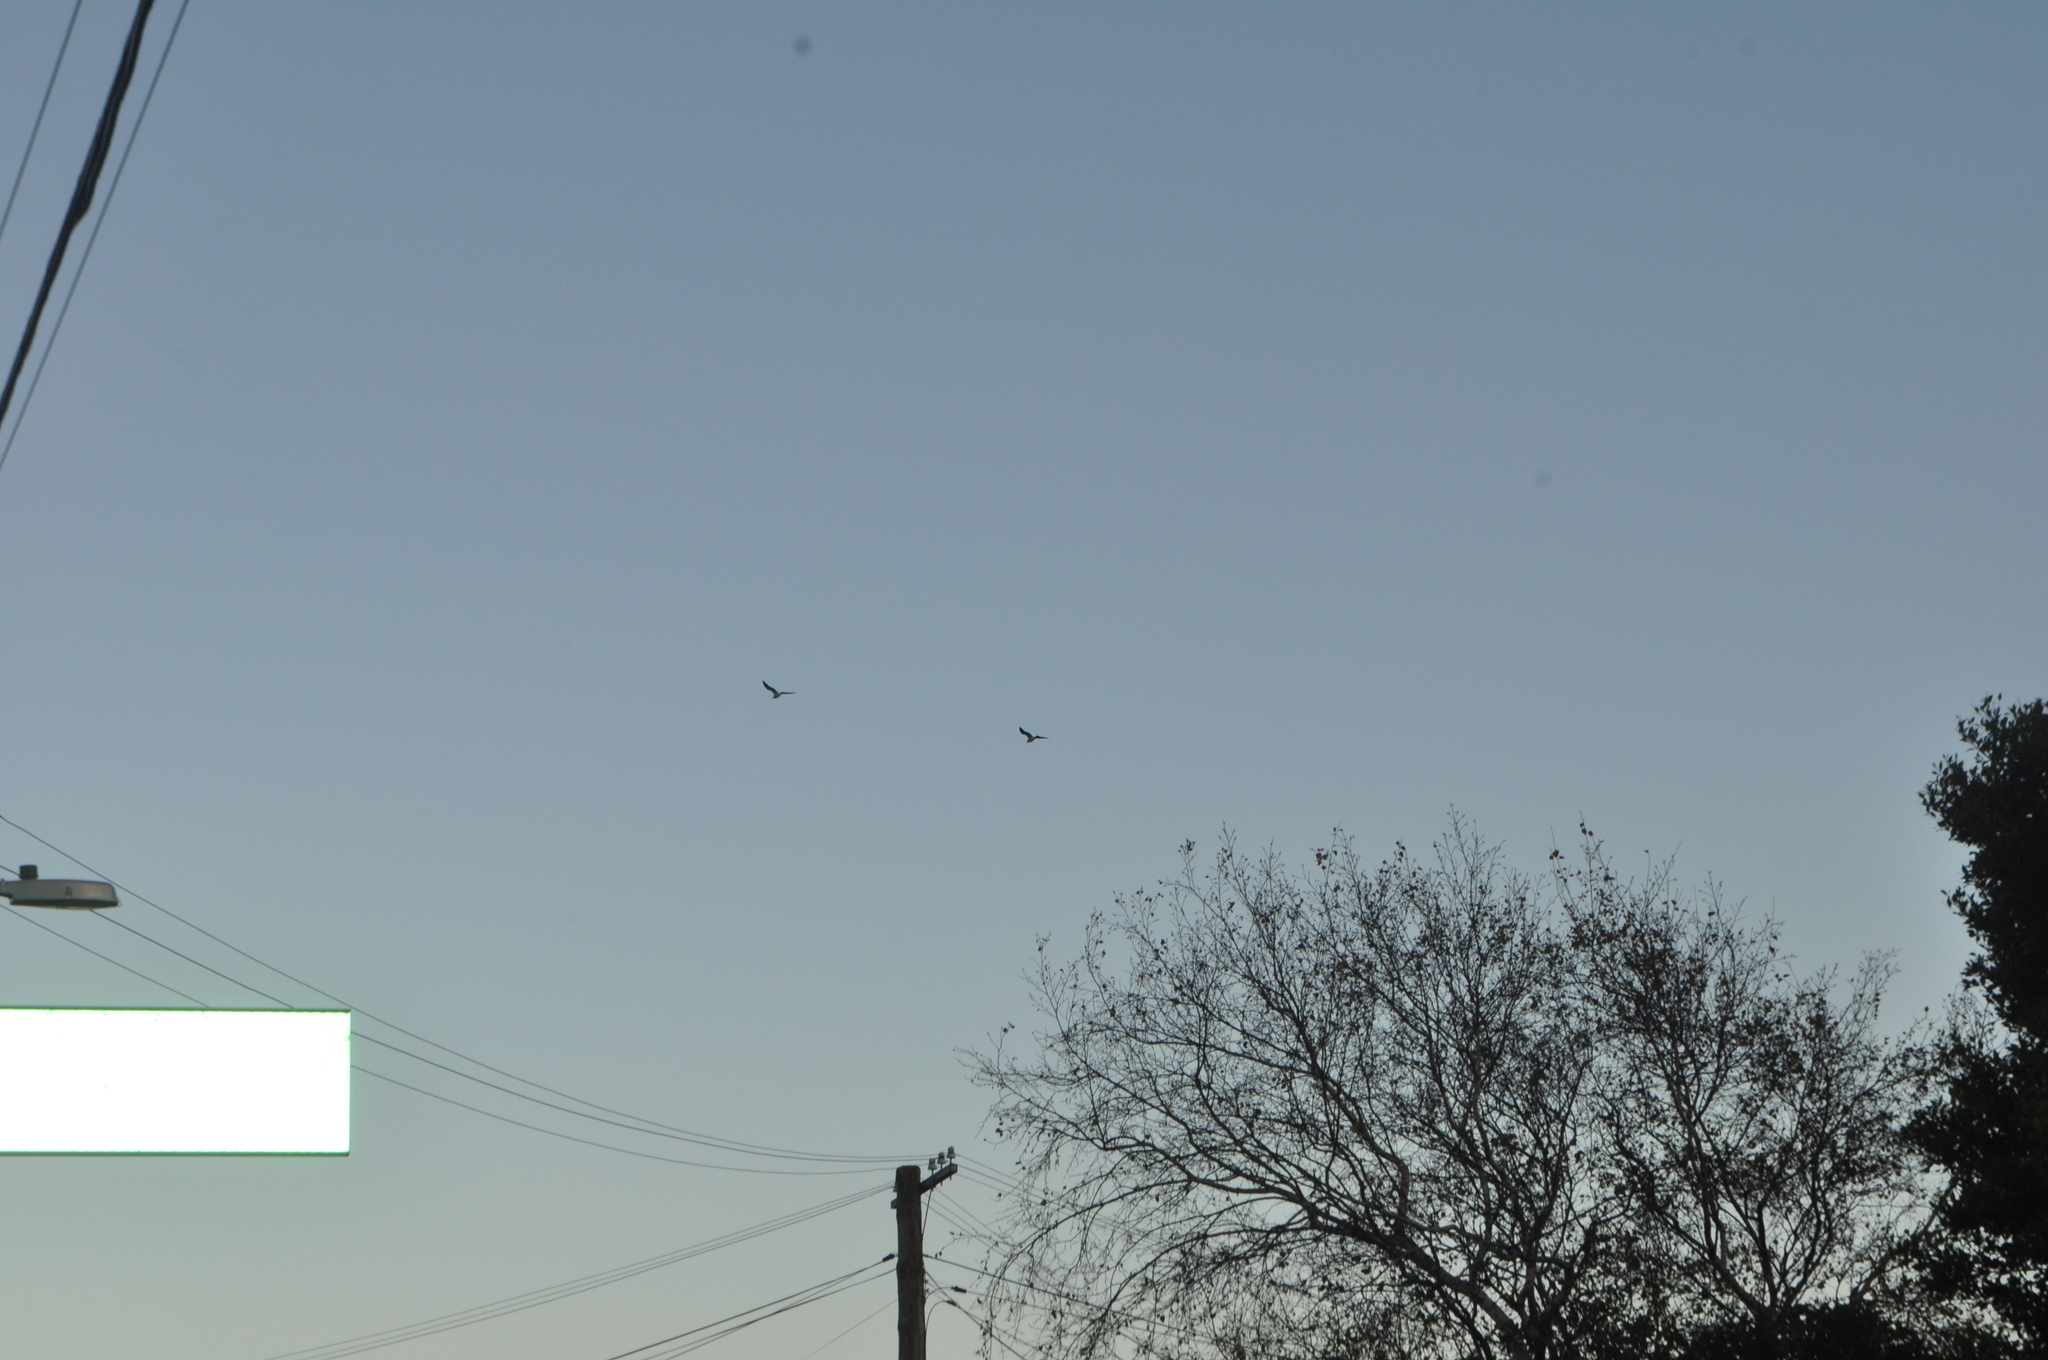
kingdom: Animalia
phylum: Chordata
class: Aves
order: Charadriiformes
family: Laridae
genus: Larus
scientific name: Larus dominicanus
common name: Kelp gull
